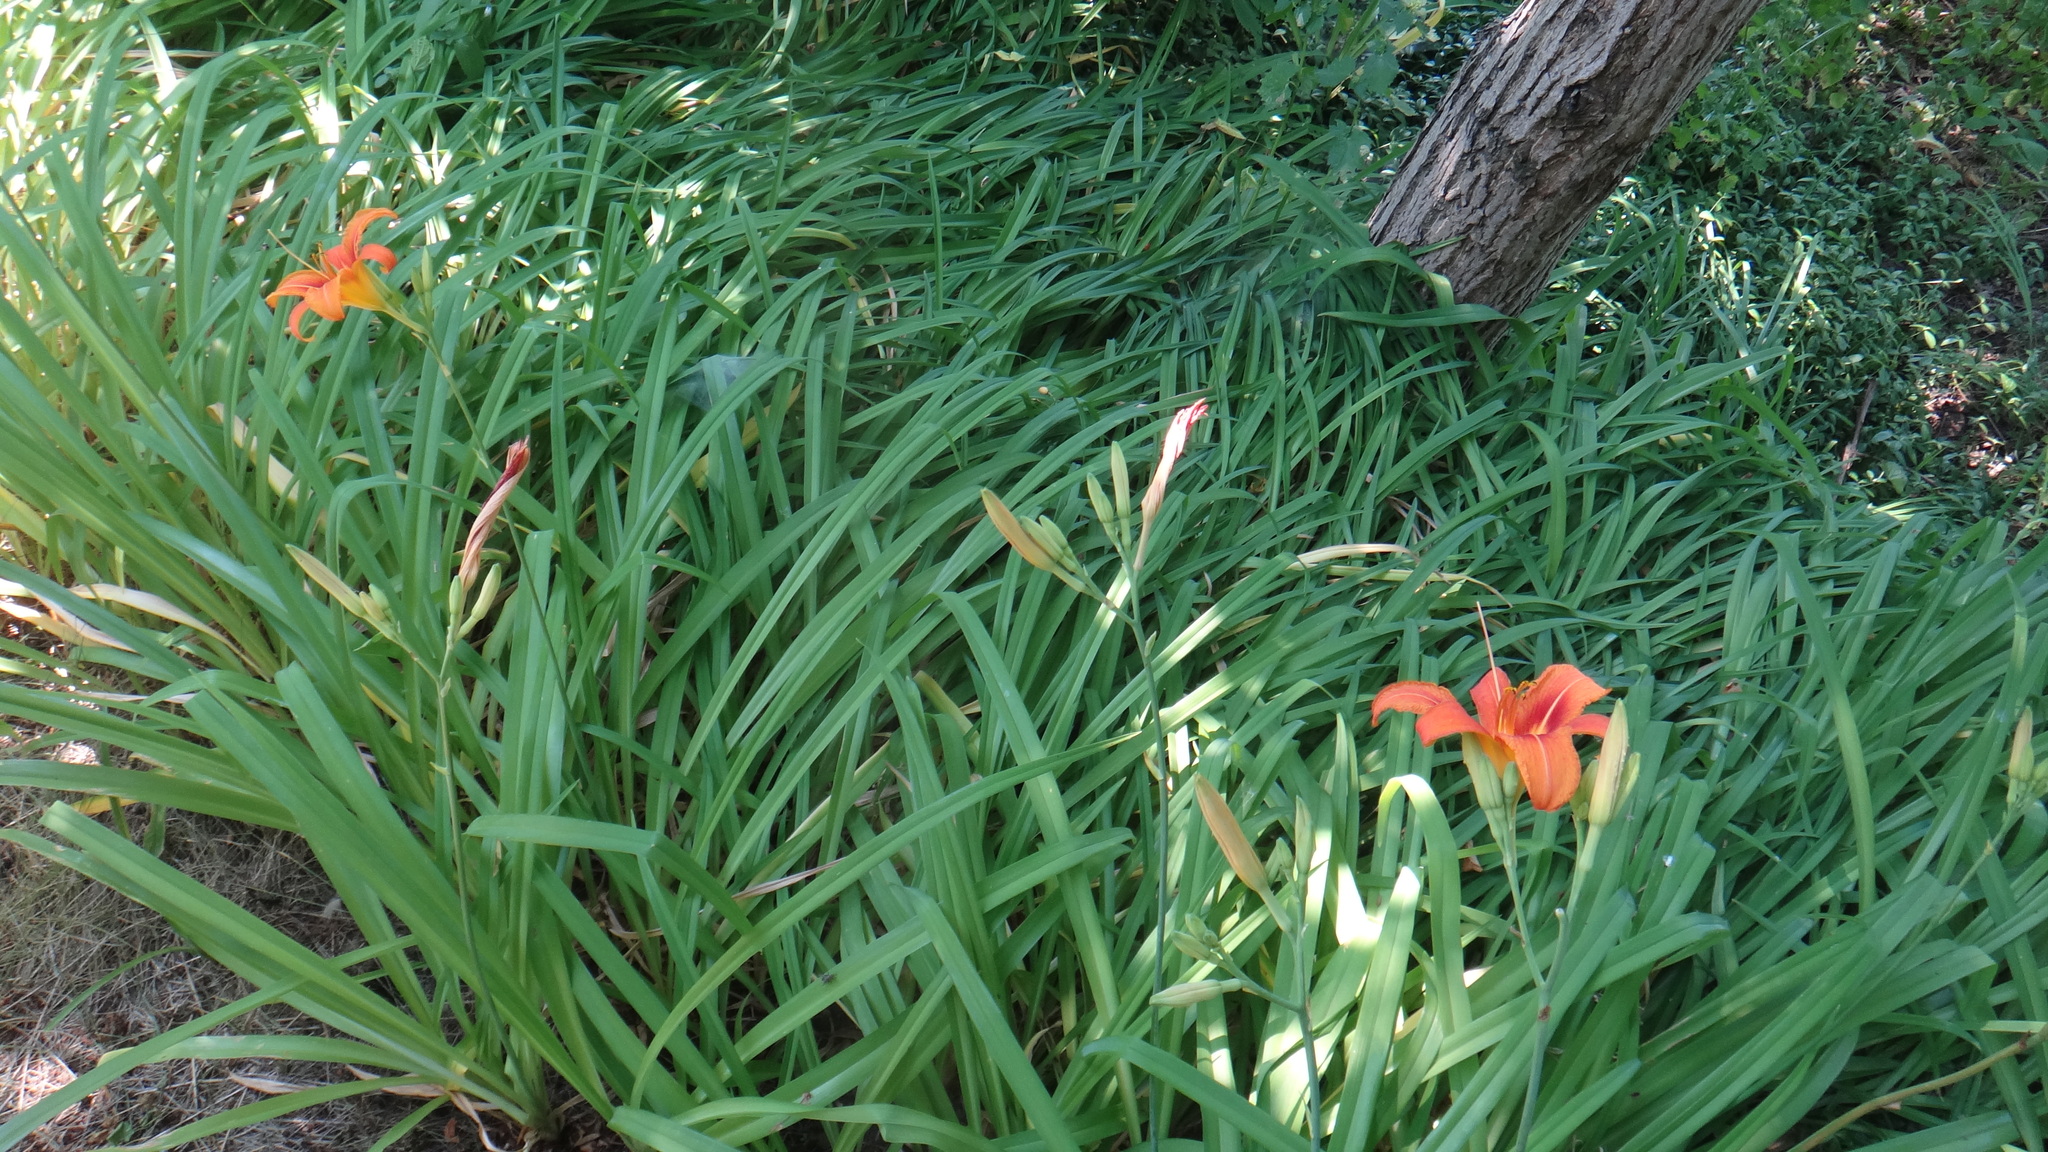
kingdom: Plantae
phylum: Tracheophyta
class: Liliopsida
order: Asparagales
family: Asphodelaceae
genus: Hemerocallis
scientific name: Hemerocallis fulva
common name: Orange day-lily
